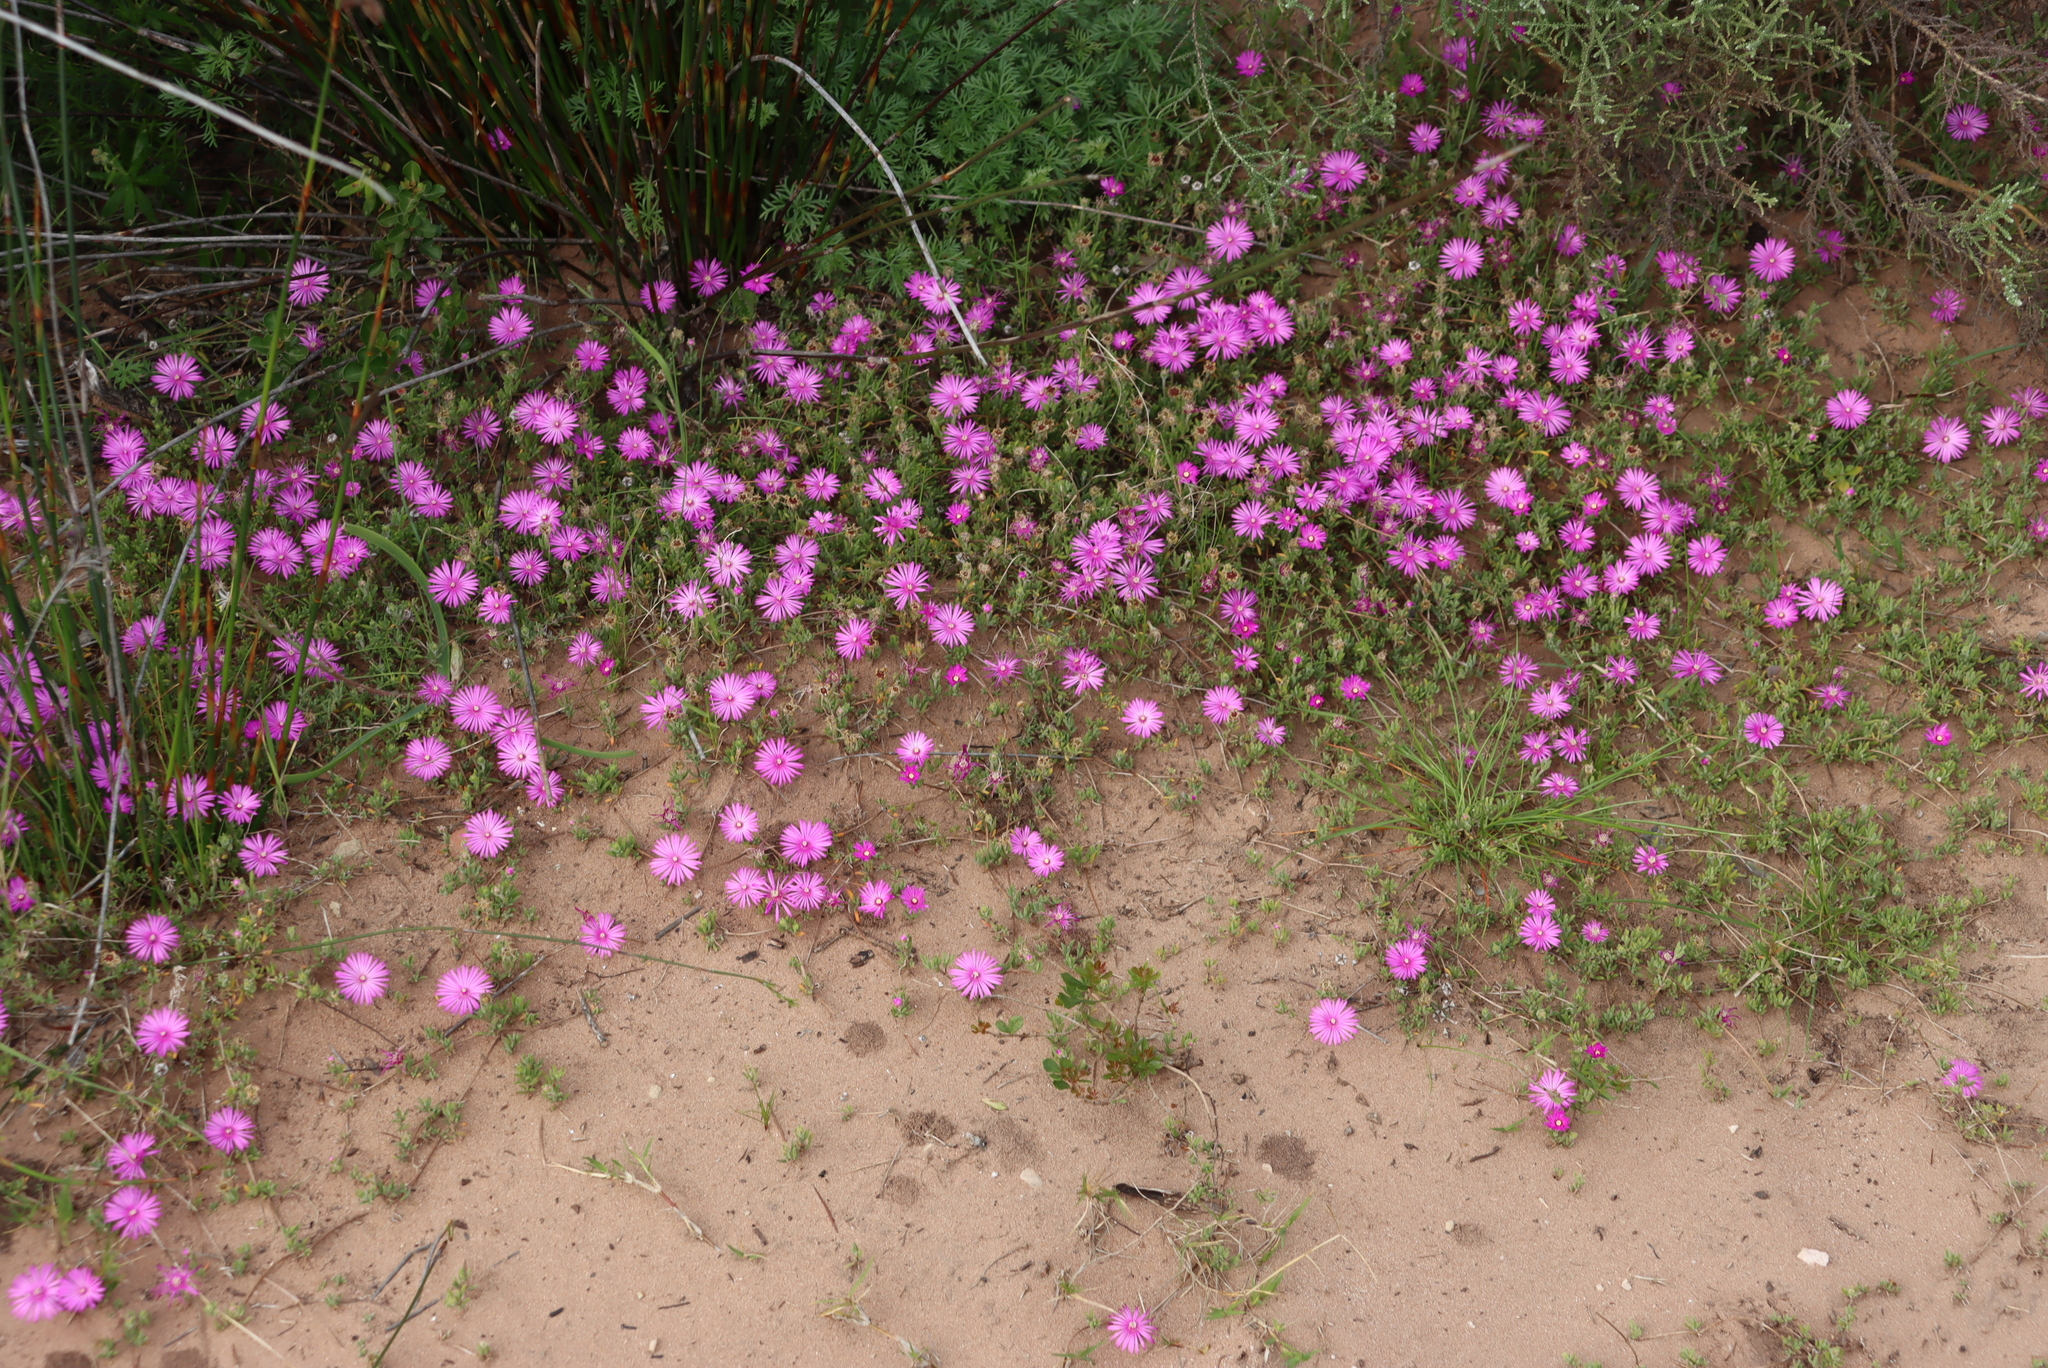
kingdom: Plantae
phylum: Tracheophyta
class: Magnoliopsida
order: Caryophyllales
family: Aizoaceae
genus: Drosanthemum
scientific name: Drosanthemum calcareum
